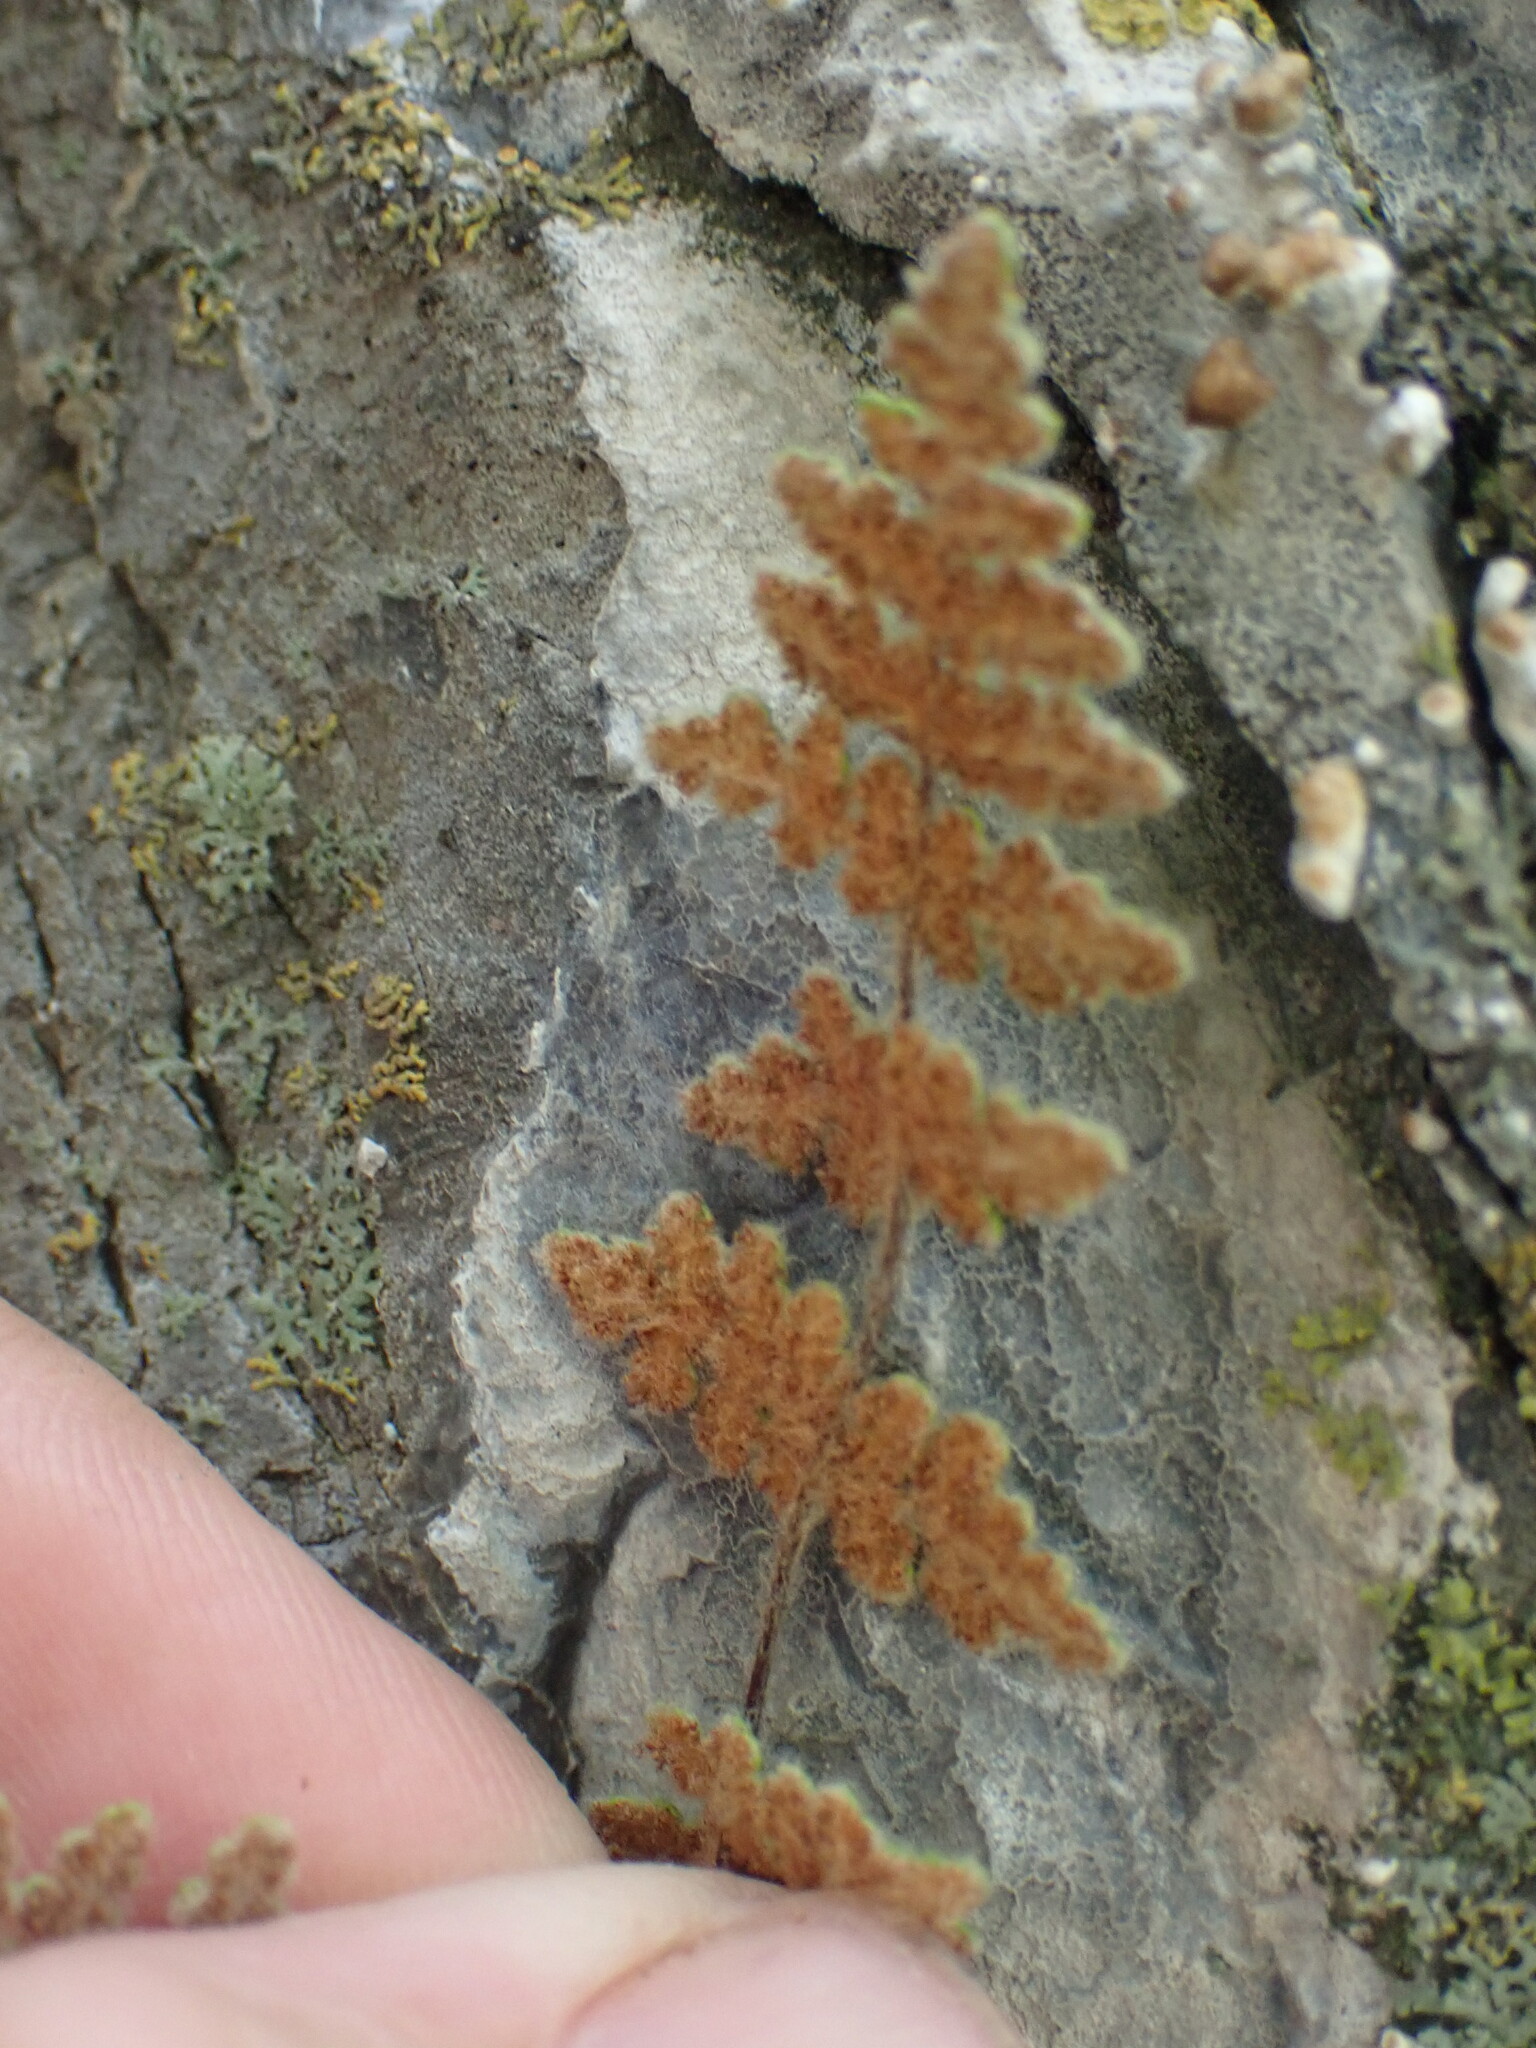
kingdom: Plantae
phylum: Tracheophyta
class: Polypodiopsida
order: Polypodiales
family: Pteridaceae
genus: Myriopteris
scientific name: Myriopteris gracilis
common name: Fee's lip fern
